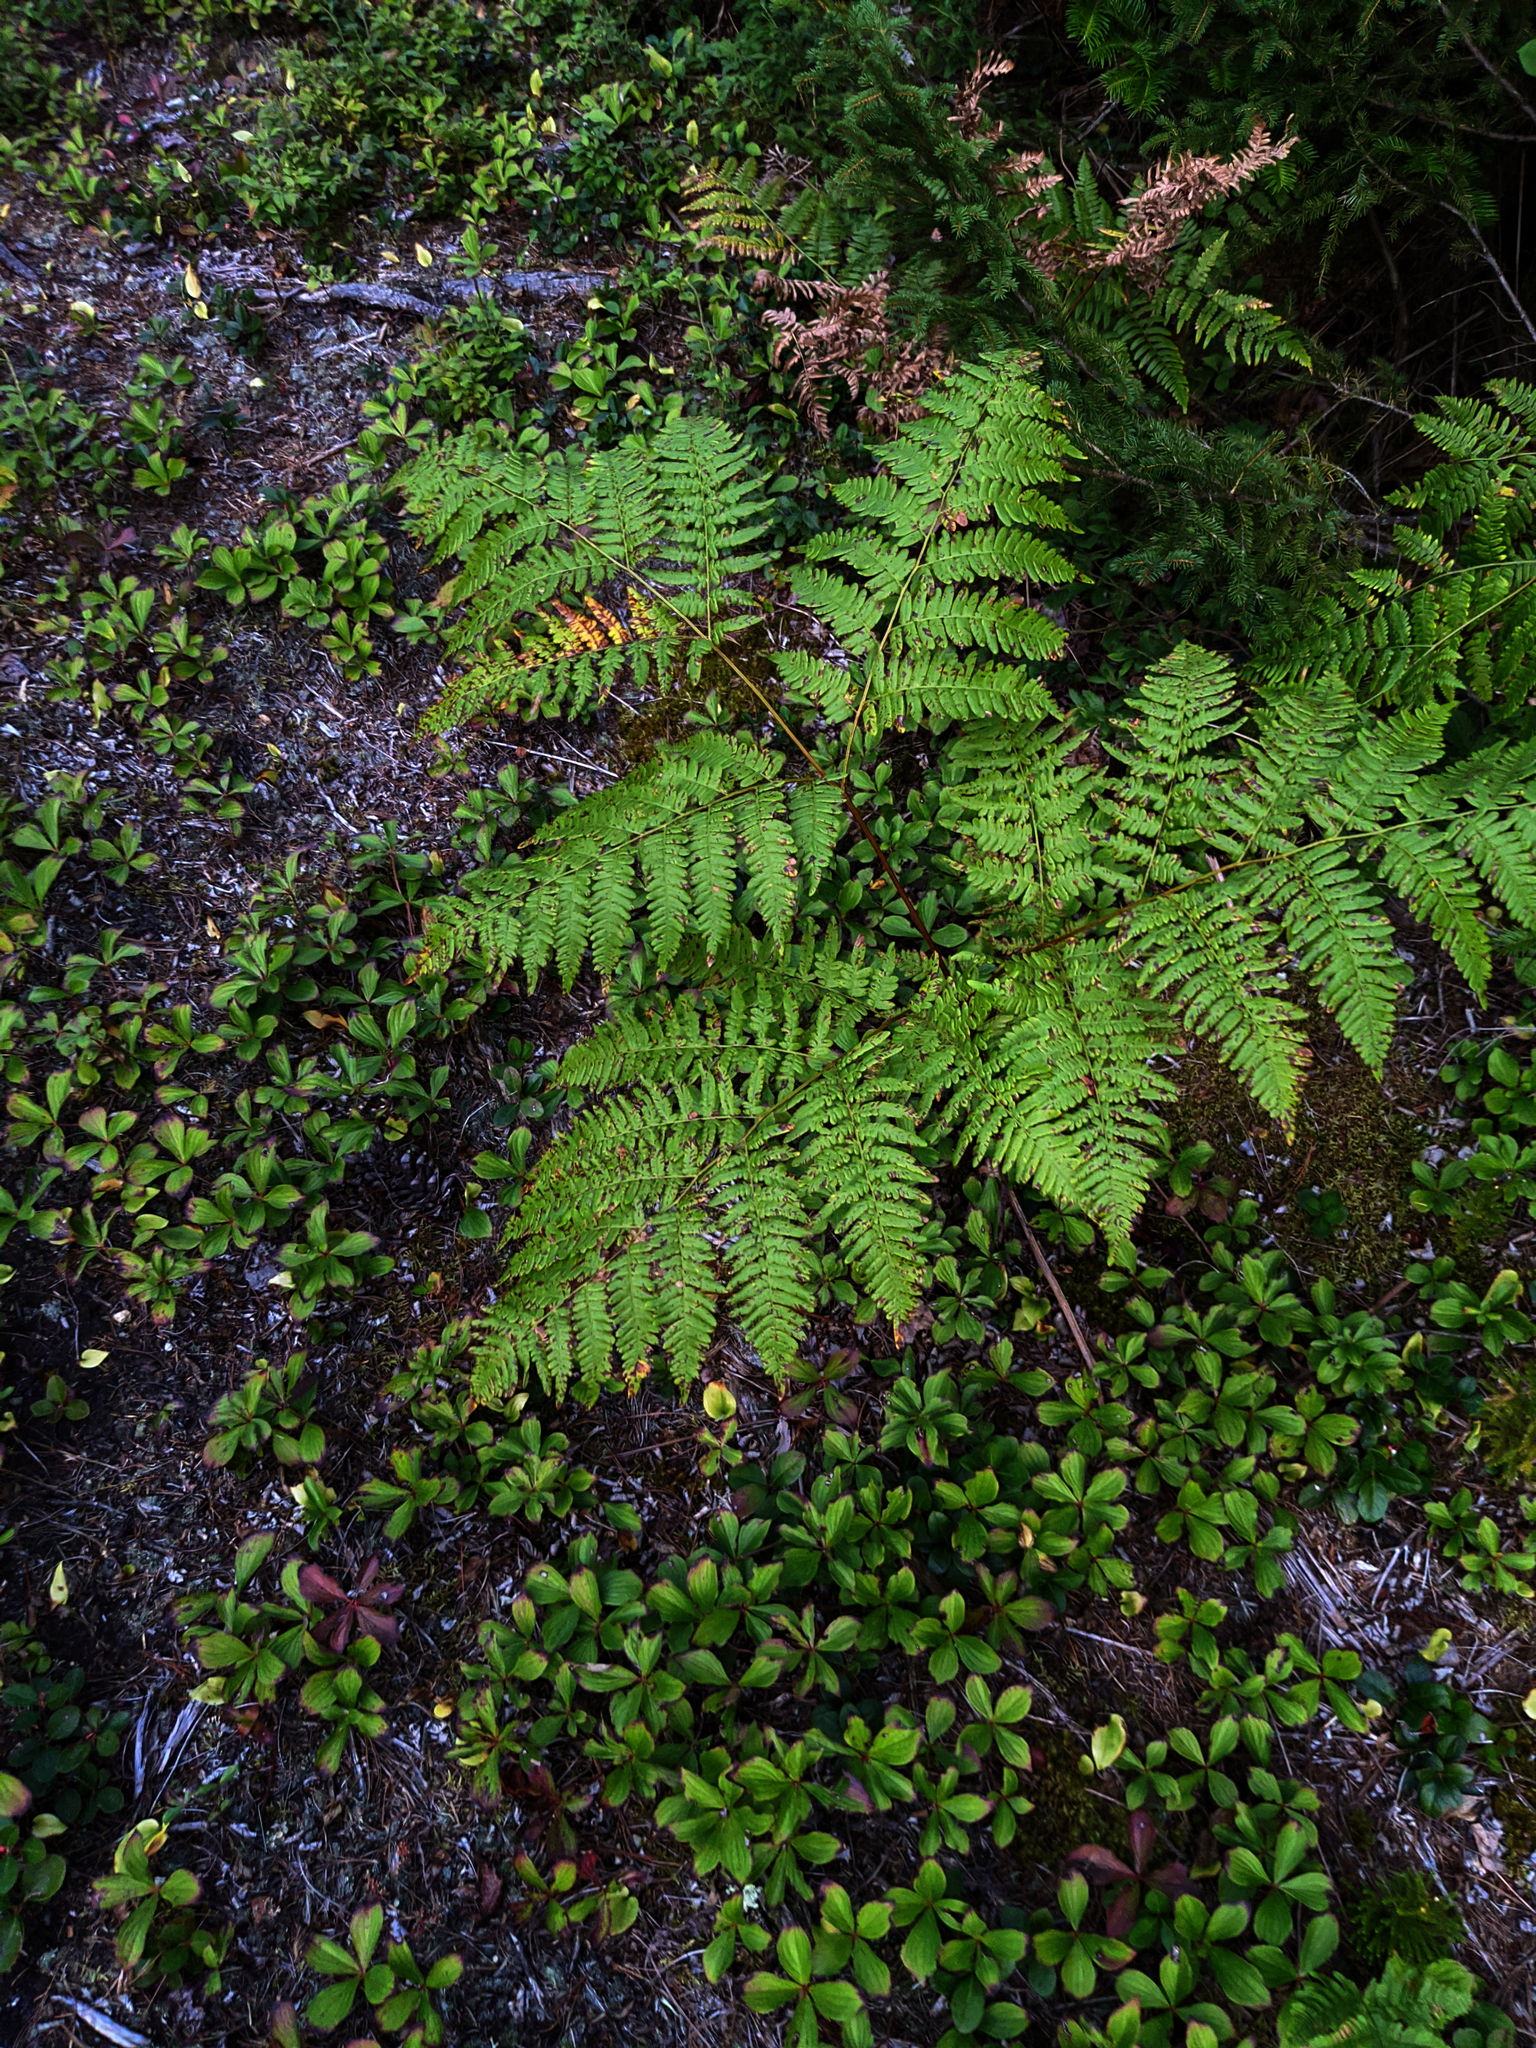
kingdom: Plantae
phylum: Tracheophyta
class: Polypodiopsida
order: Polypodiales
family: Dennstaedtiaceae
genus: Pteridium
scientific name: Pteridium aquilinum
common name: Bracken
